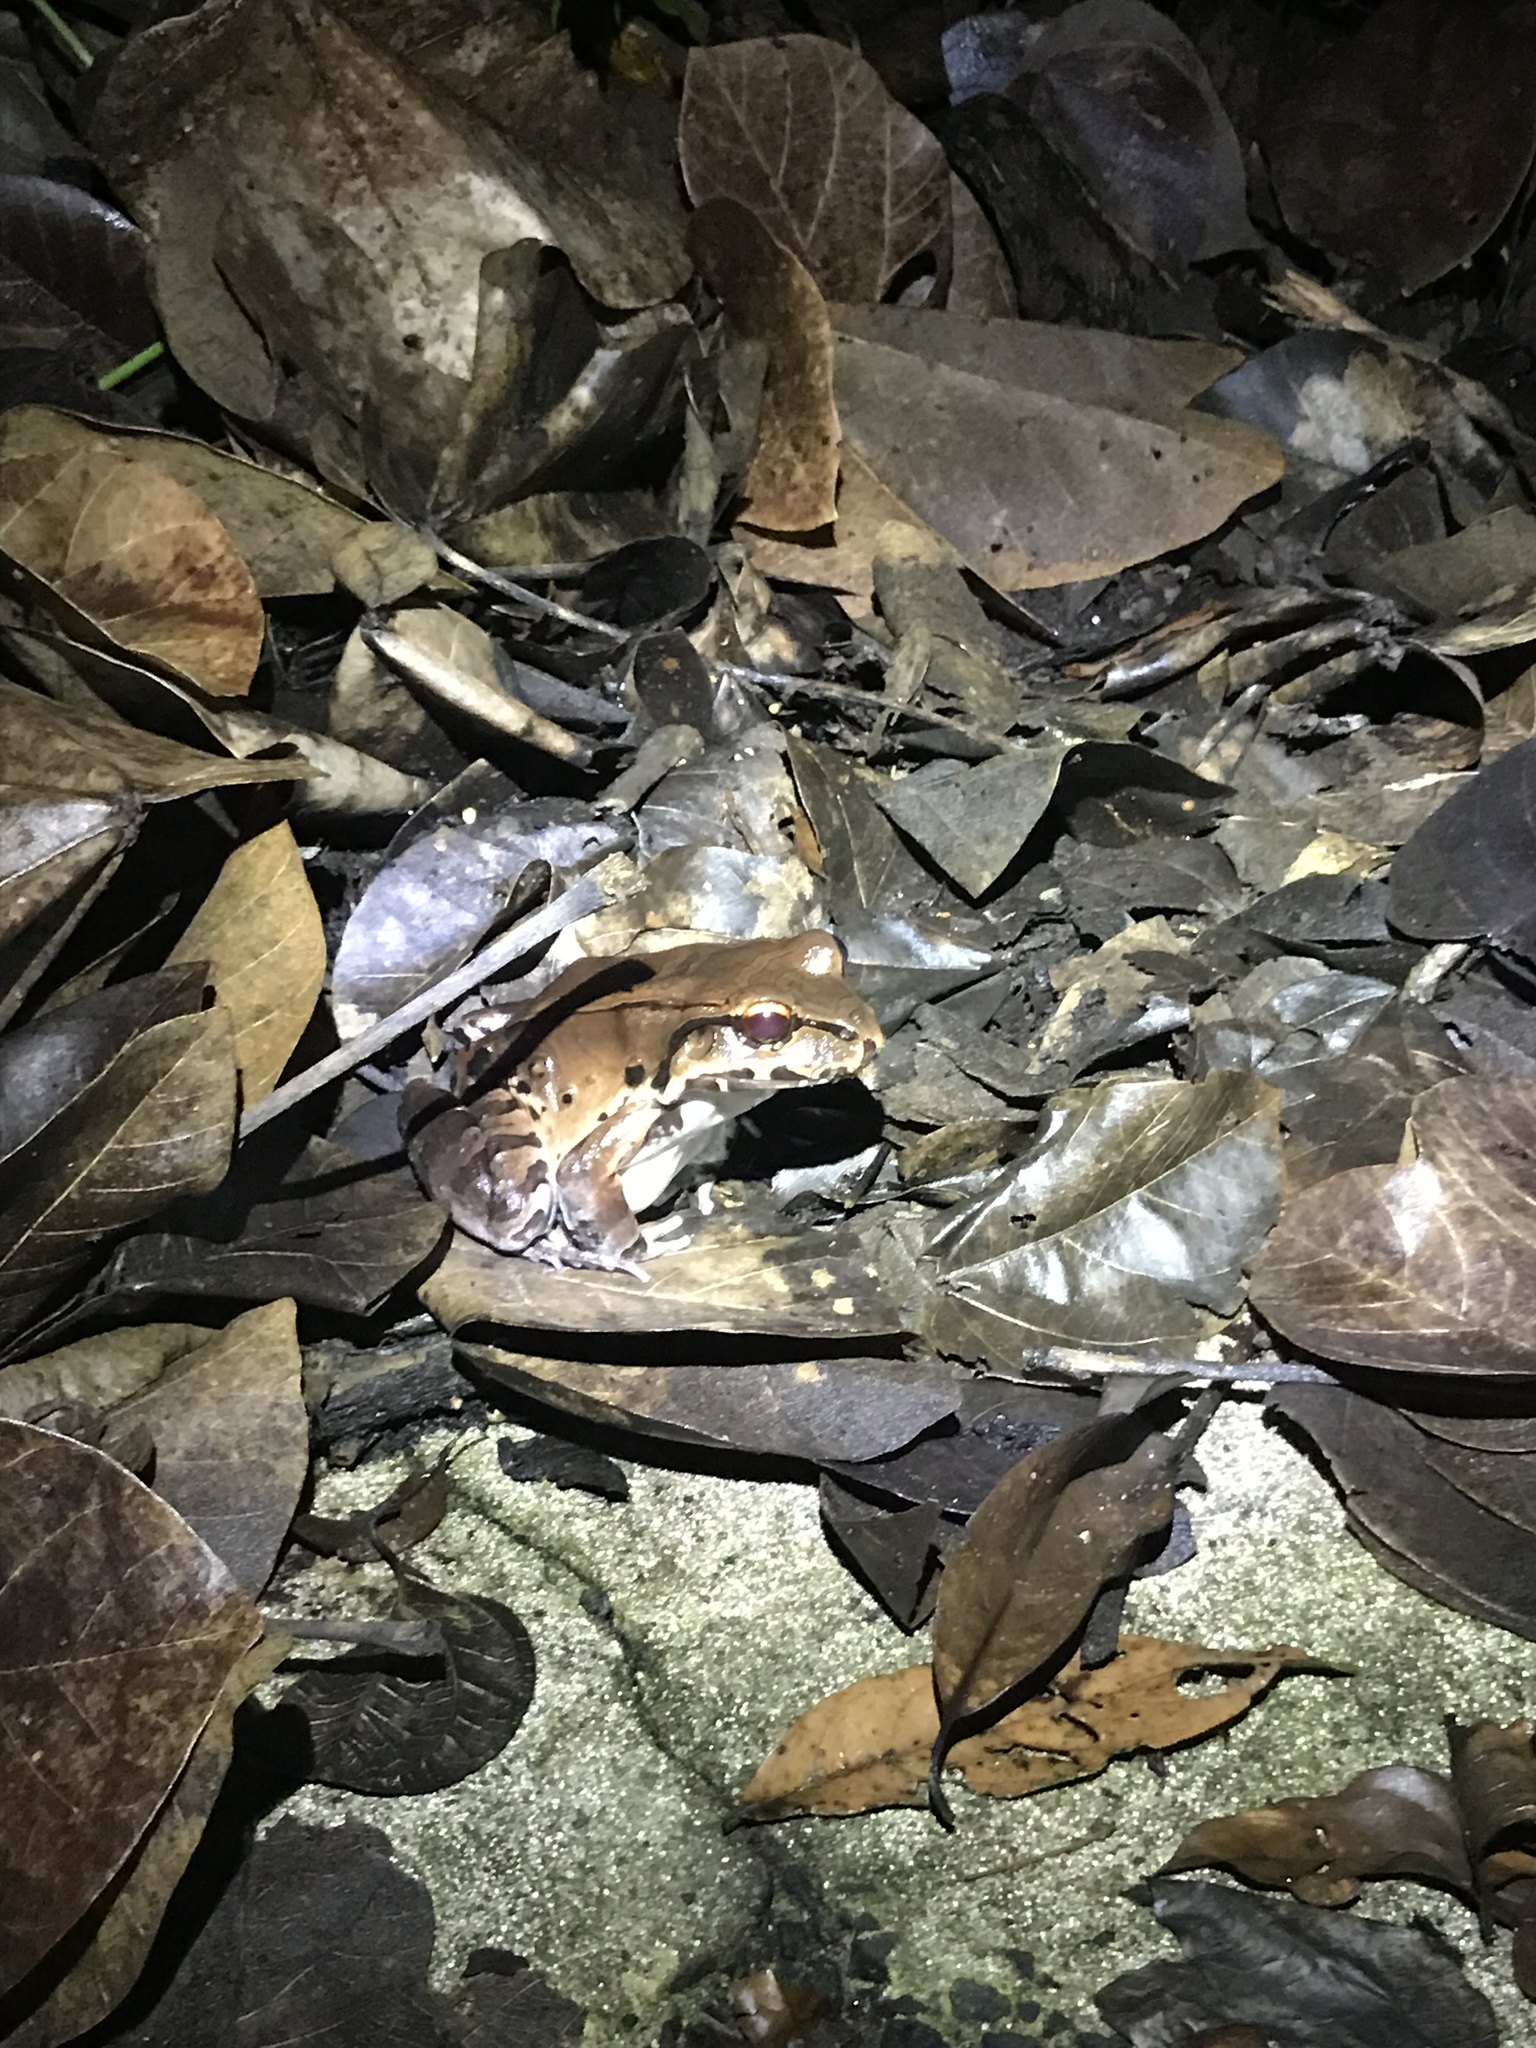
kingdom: Animalia
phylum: Chordata
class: Amphibia
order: Anura
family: Leptodactylidae
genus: Leptodactylus
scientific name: Leptodactylus savagei
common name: Savage's thin-toed frog
